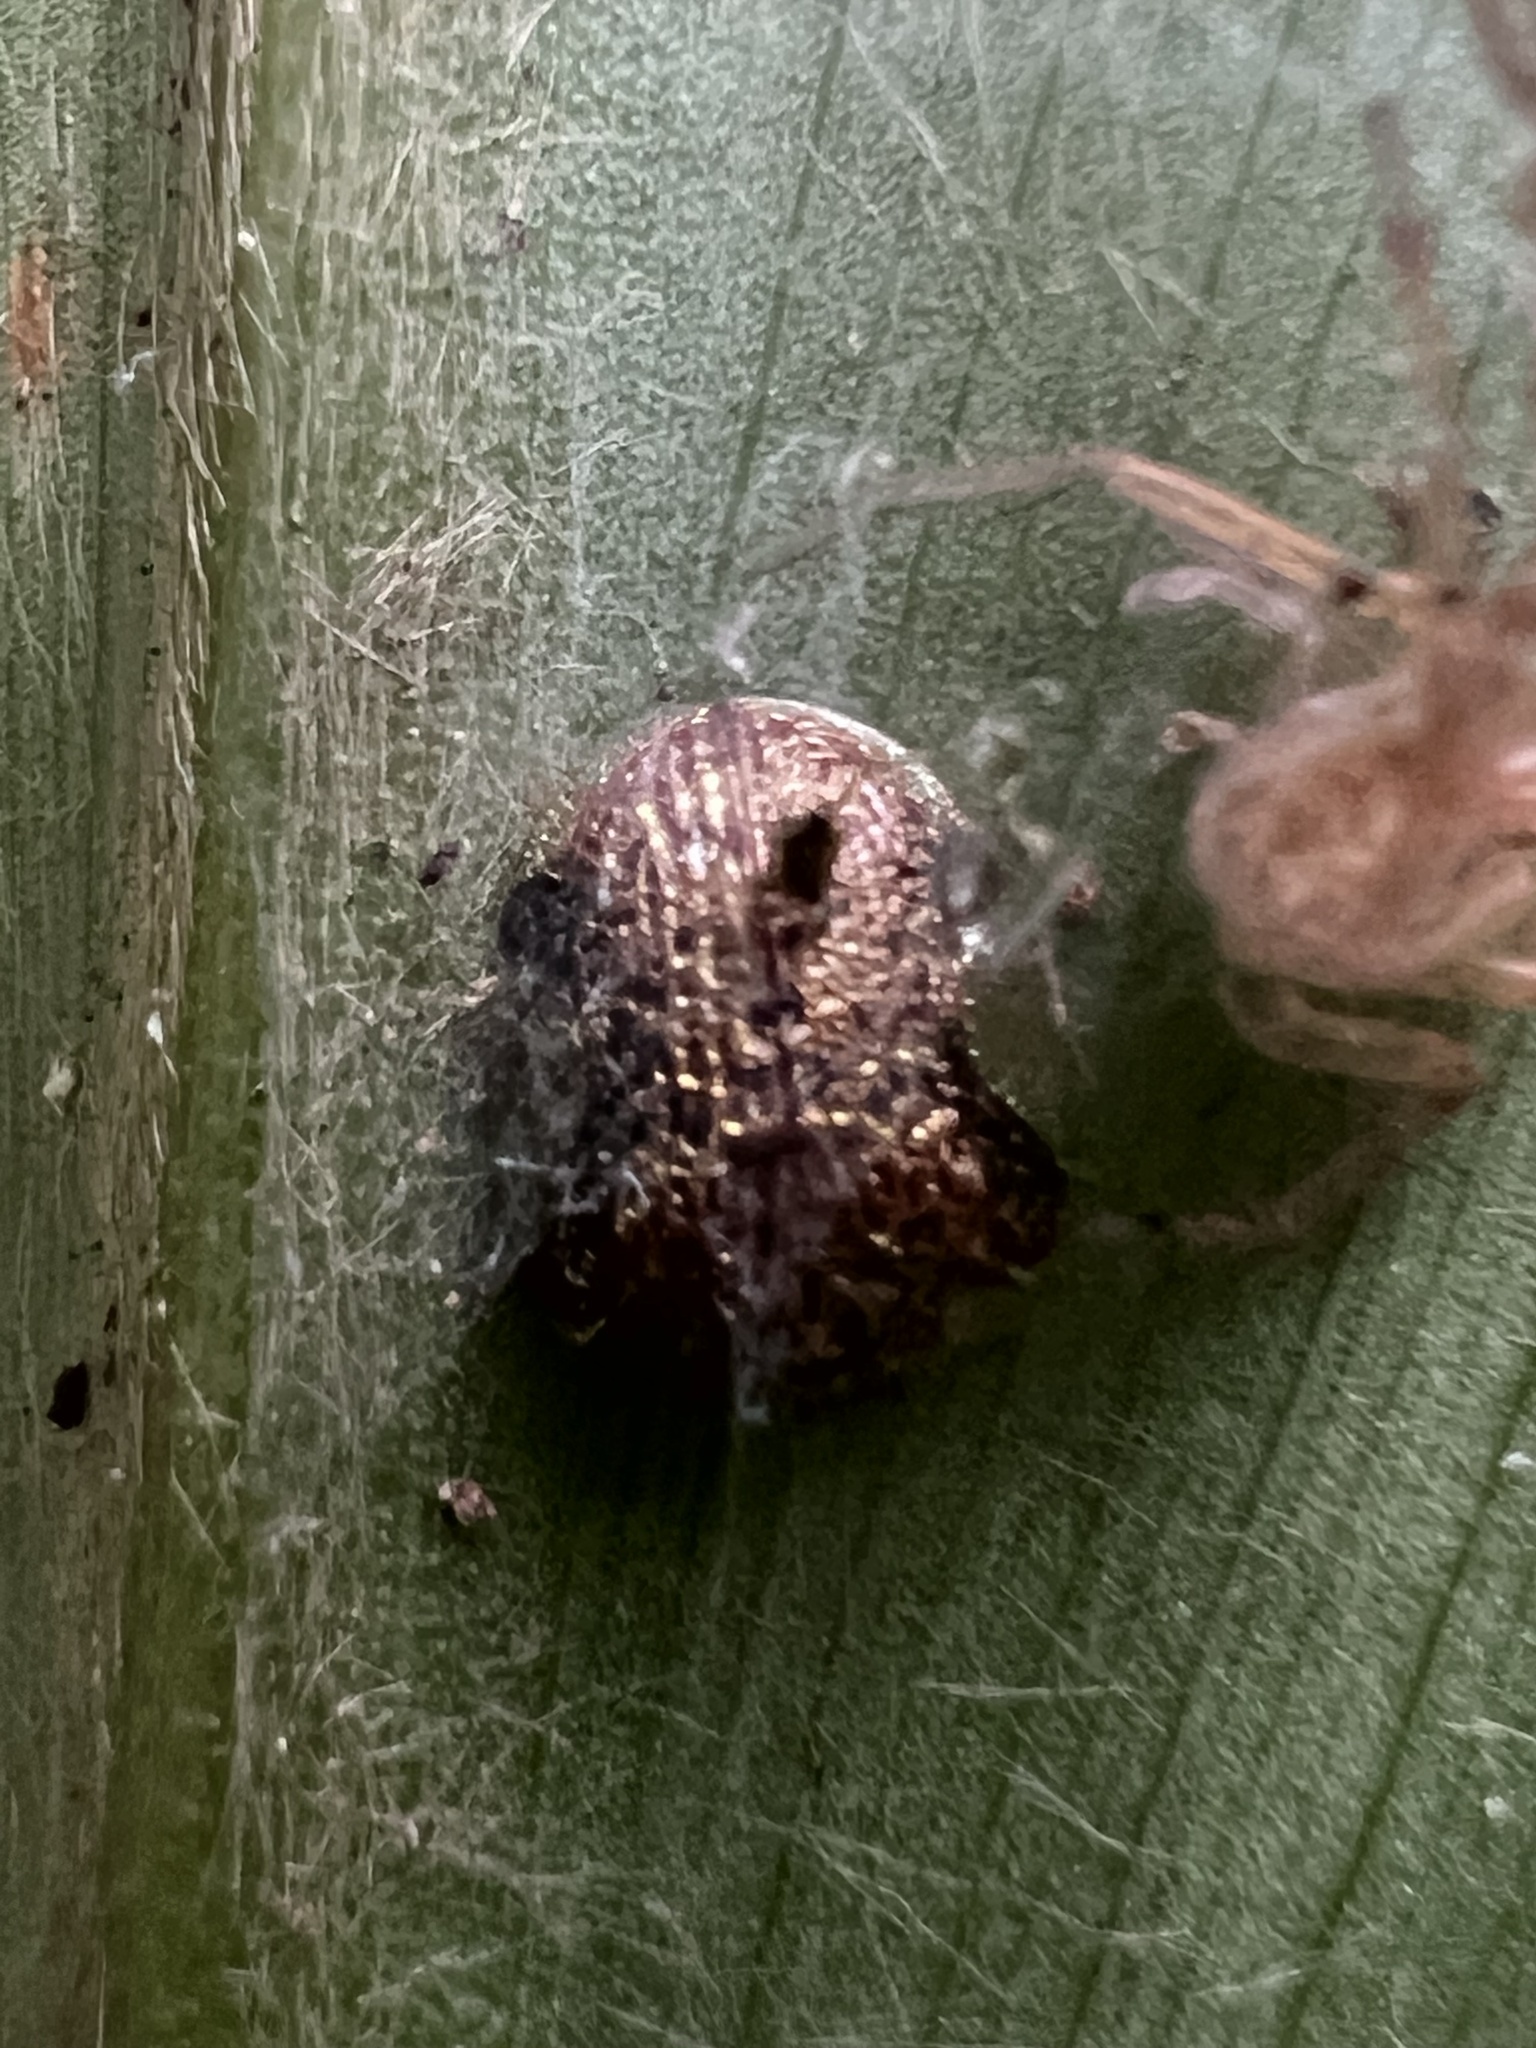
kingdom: Animalia
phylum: Arthropoda
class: Insecta
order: Coleoptera
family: Chrysomelidae
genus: Microctenochira
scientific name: Microctenochira hectica
